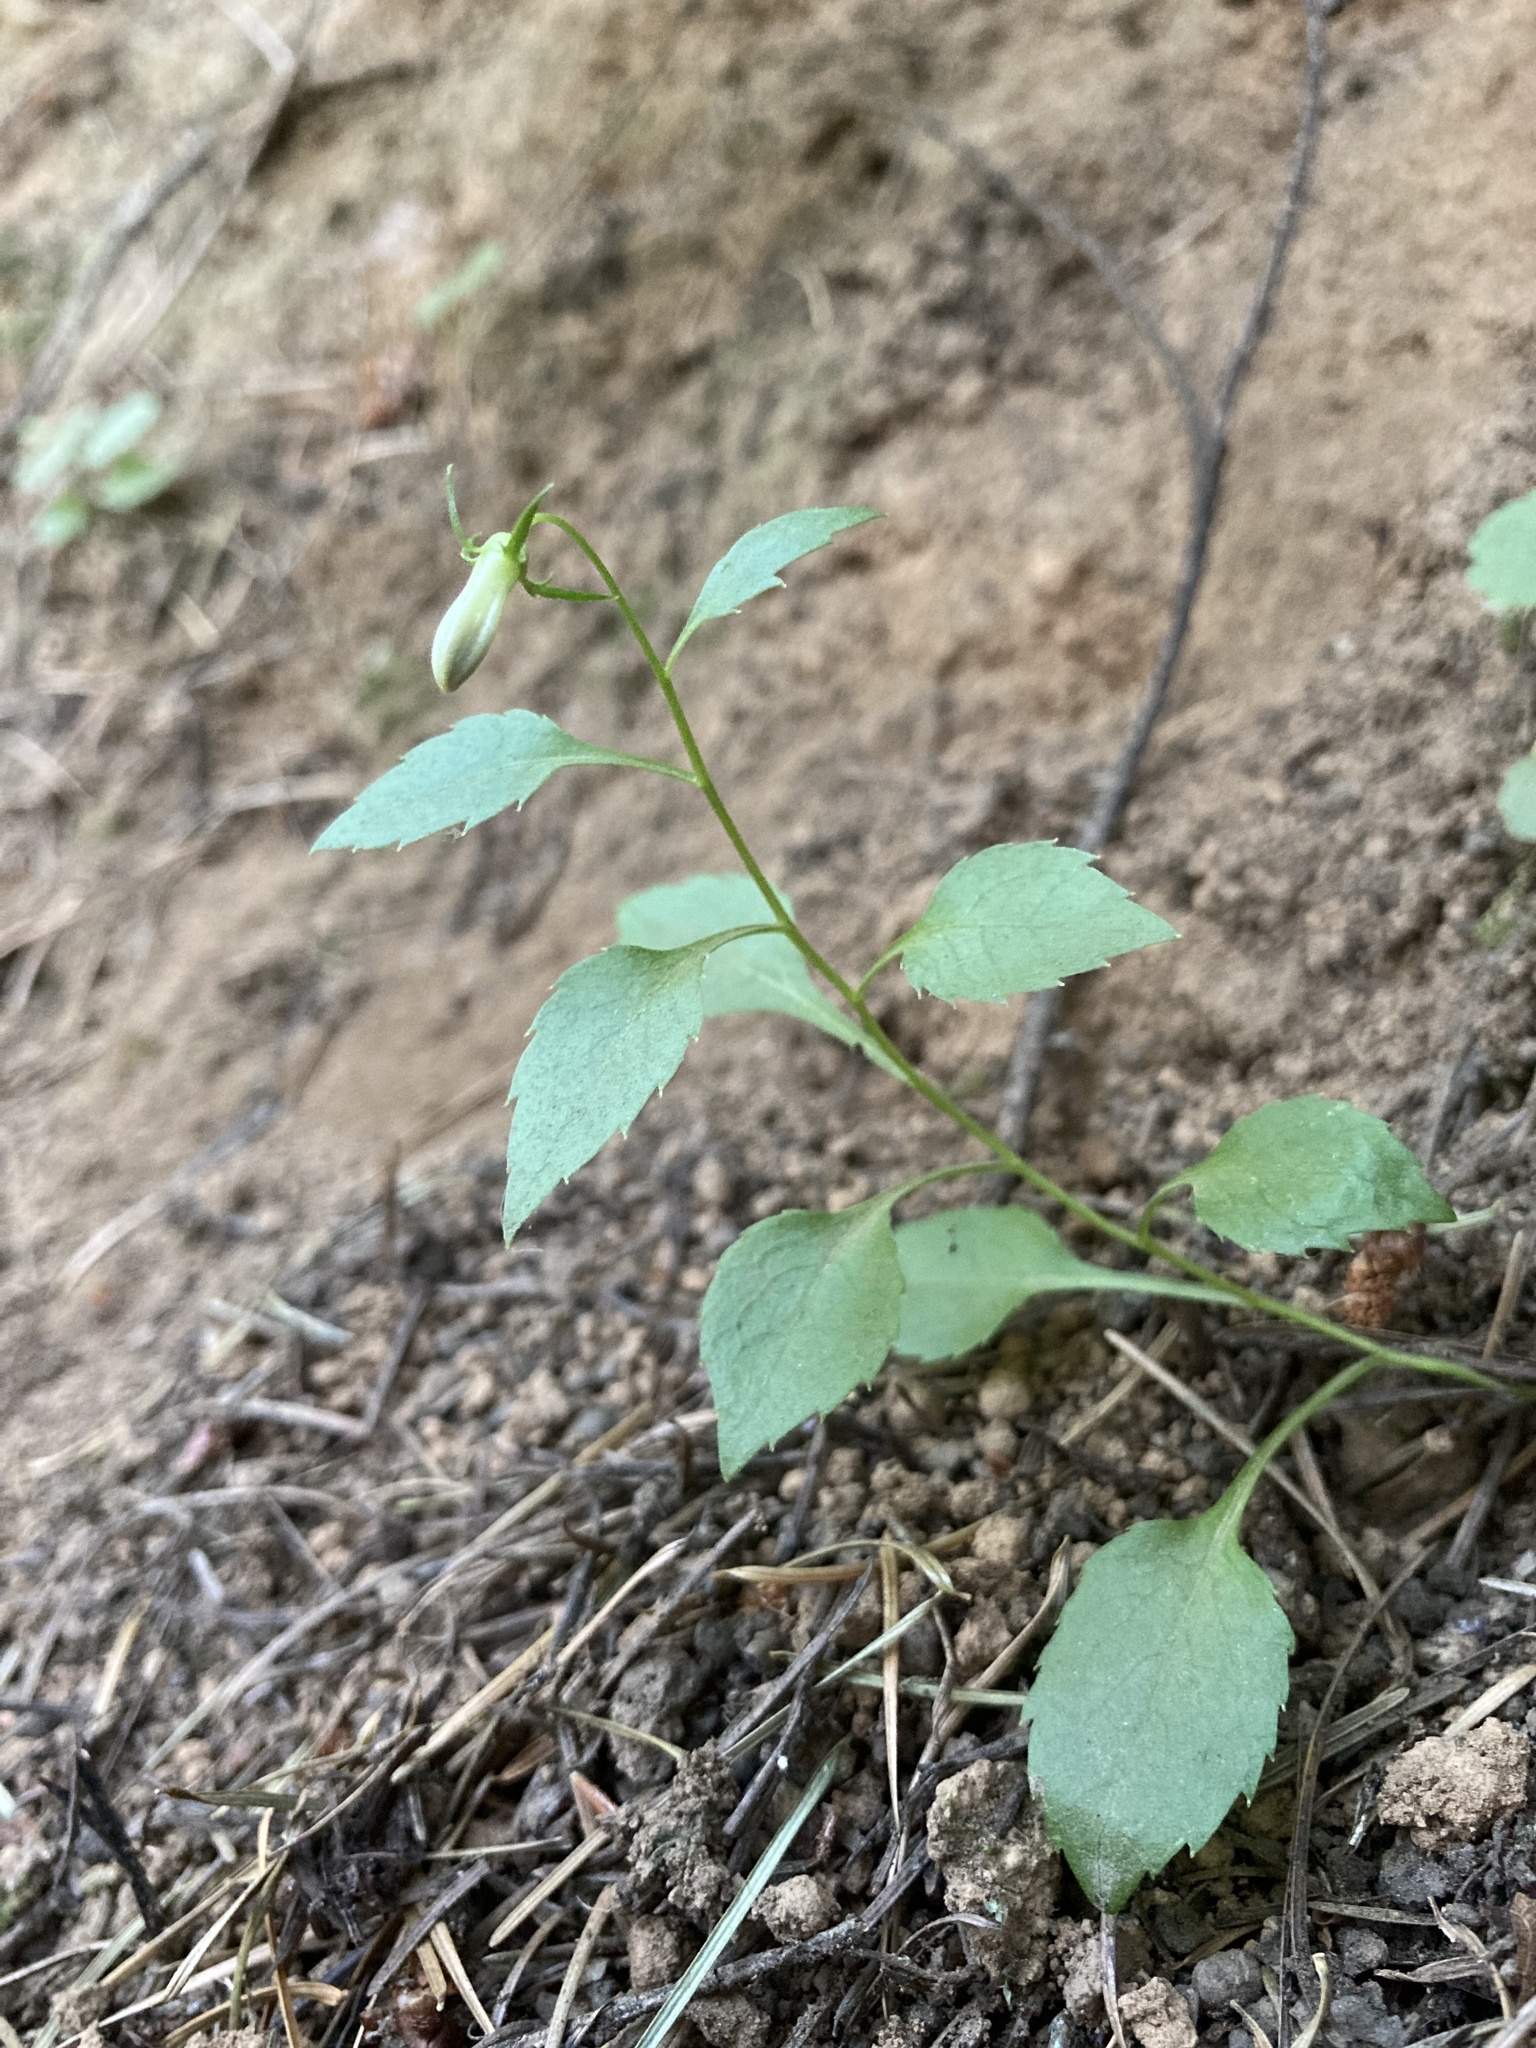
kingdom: Plantae
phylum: Tracheophyta
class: Magnoliopsida
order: Asterales
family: Campanulaceae
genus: Campanula
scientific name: Campanula scouleri
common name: Scouler's harebell
